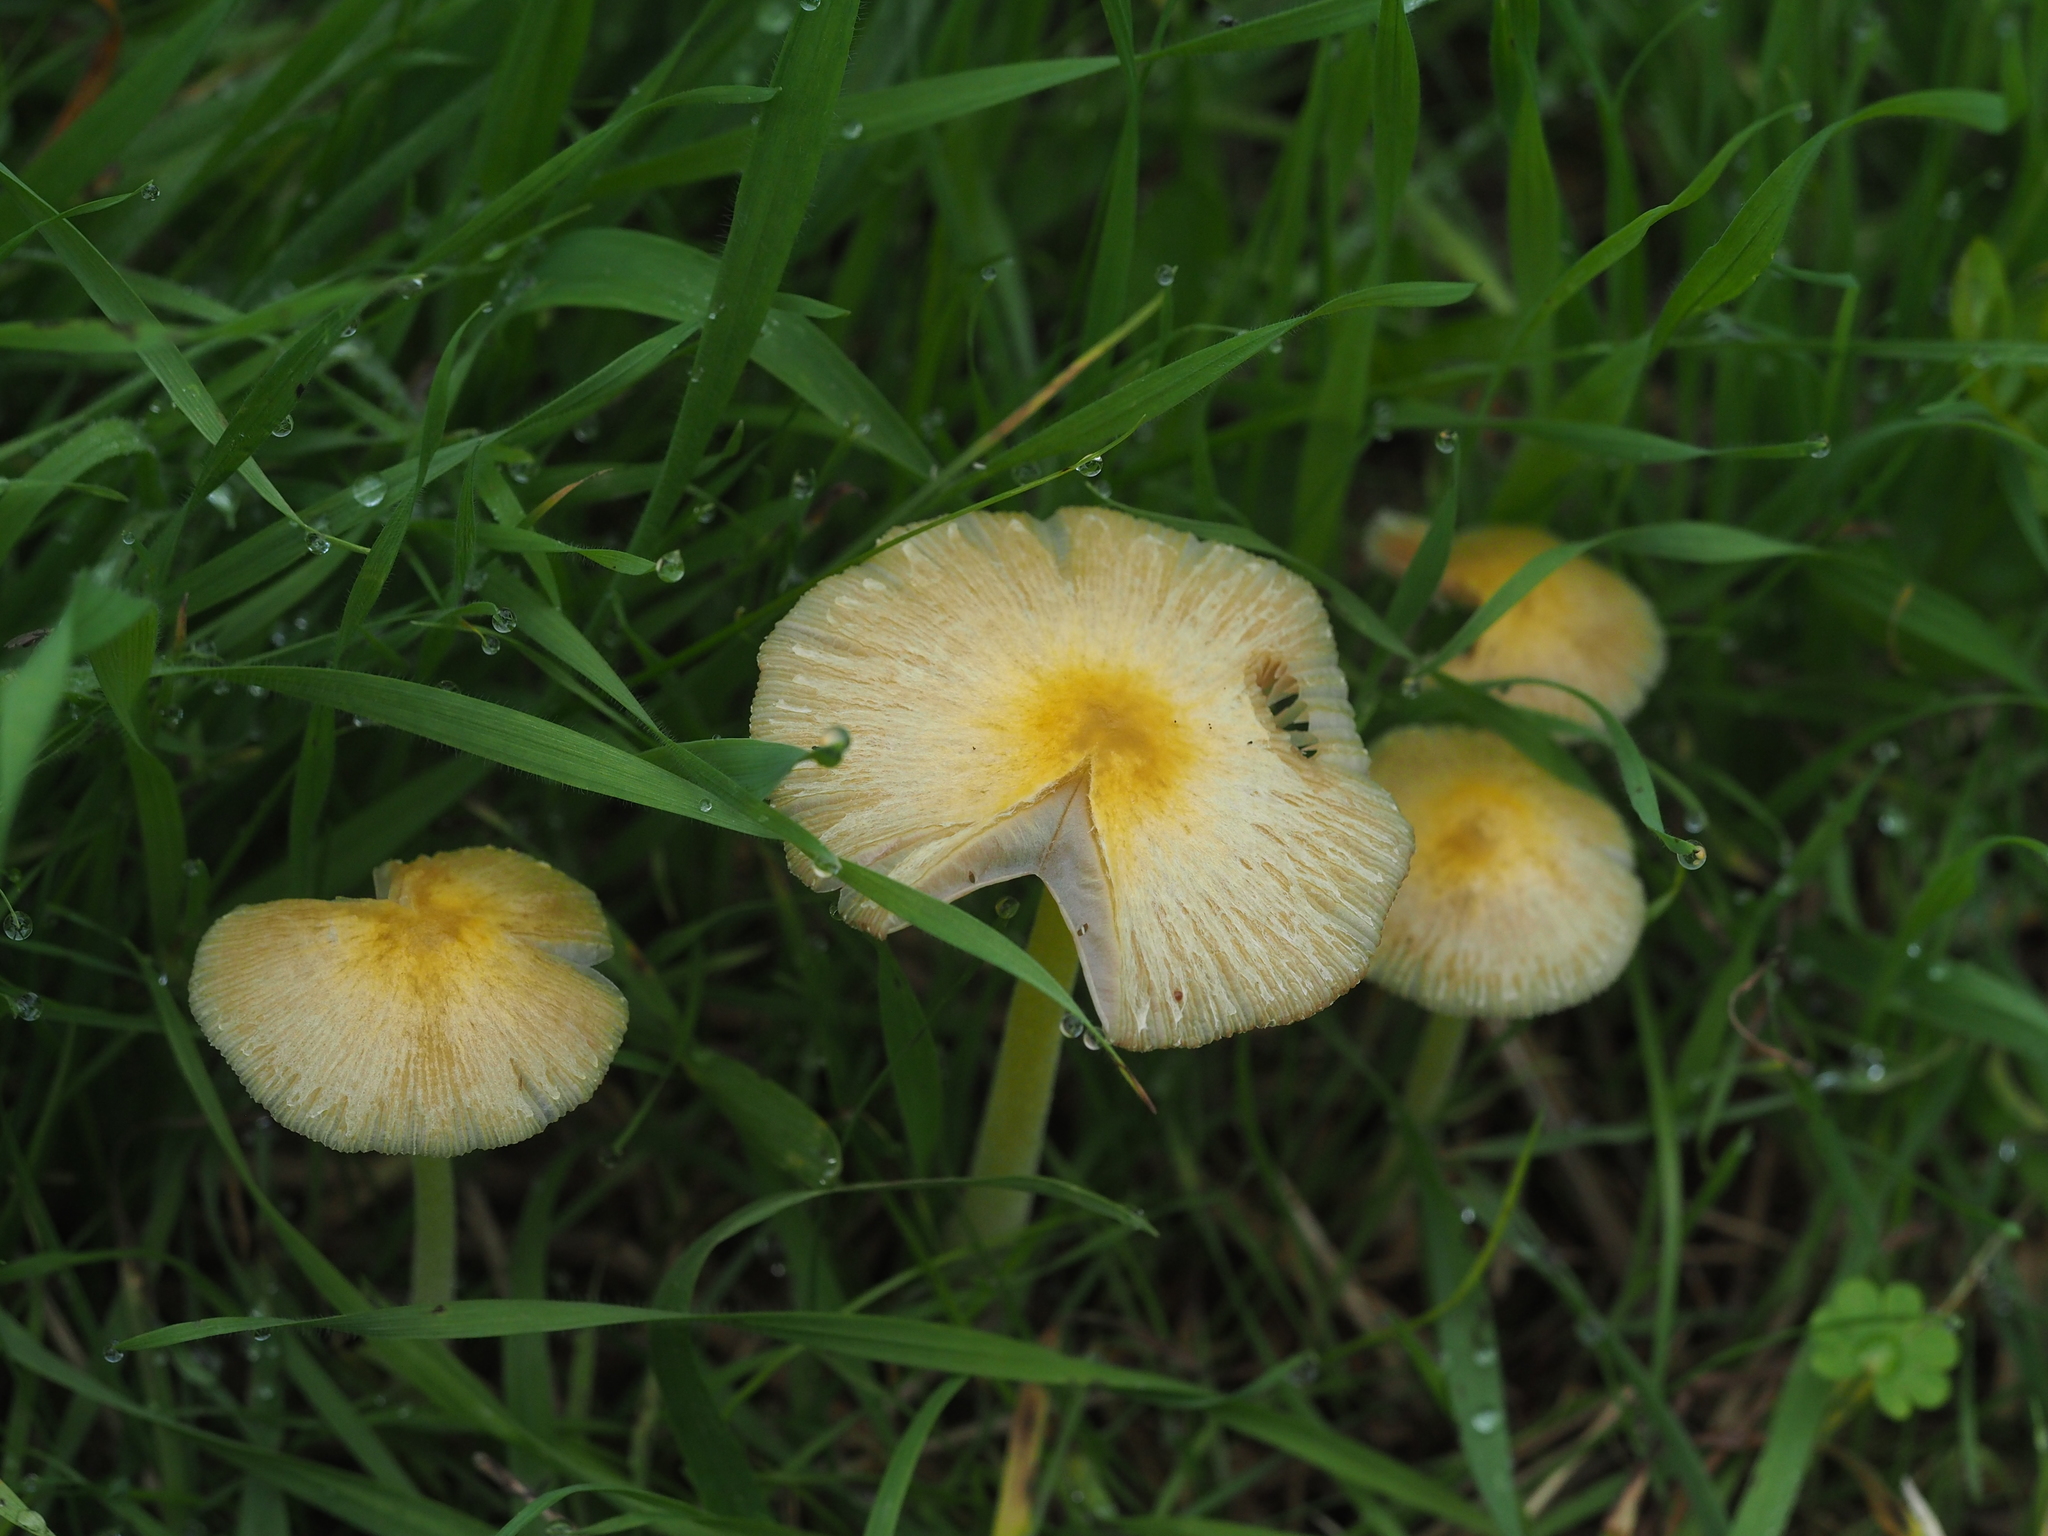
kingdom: Fungi
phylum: Basidiomycota
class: Agaricomycetes
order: Agaricales
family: Bolbitiaceae
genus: Bolbitius
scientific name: Bolbitius titubans
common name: Yellow fieldcap
